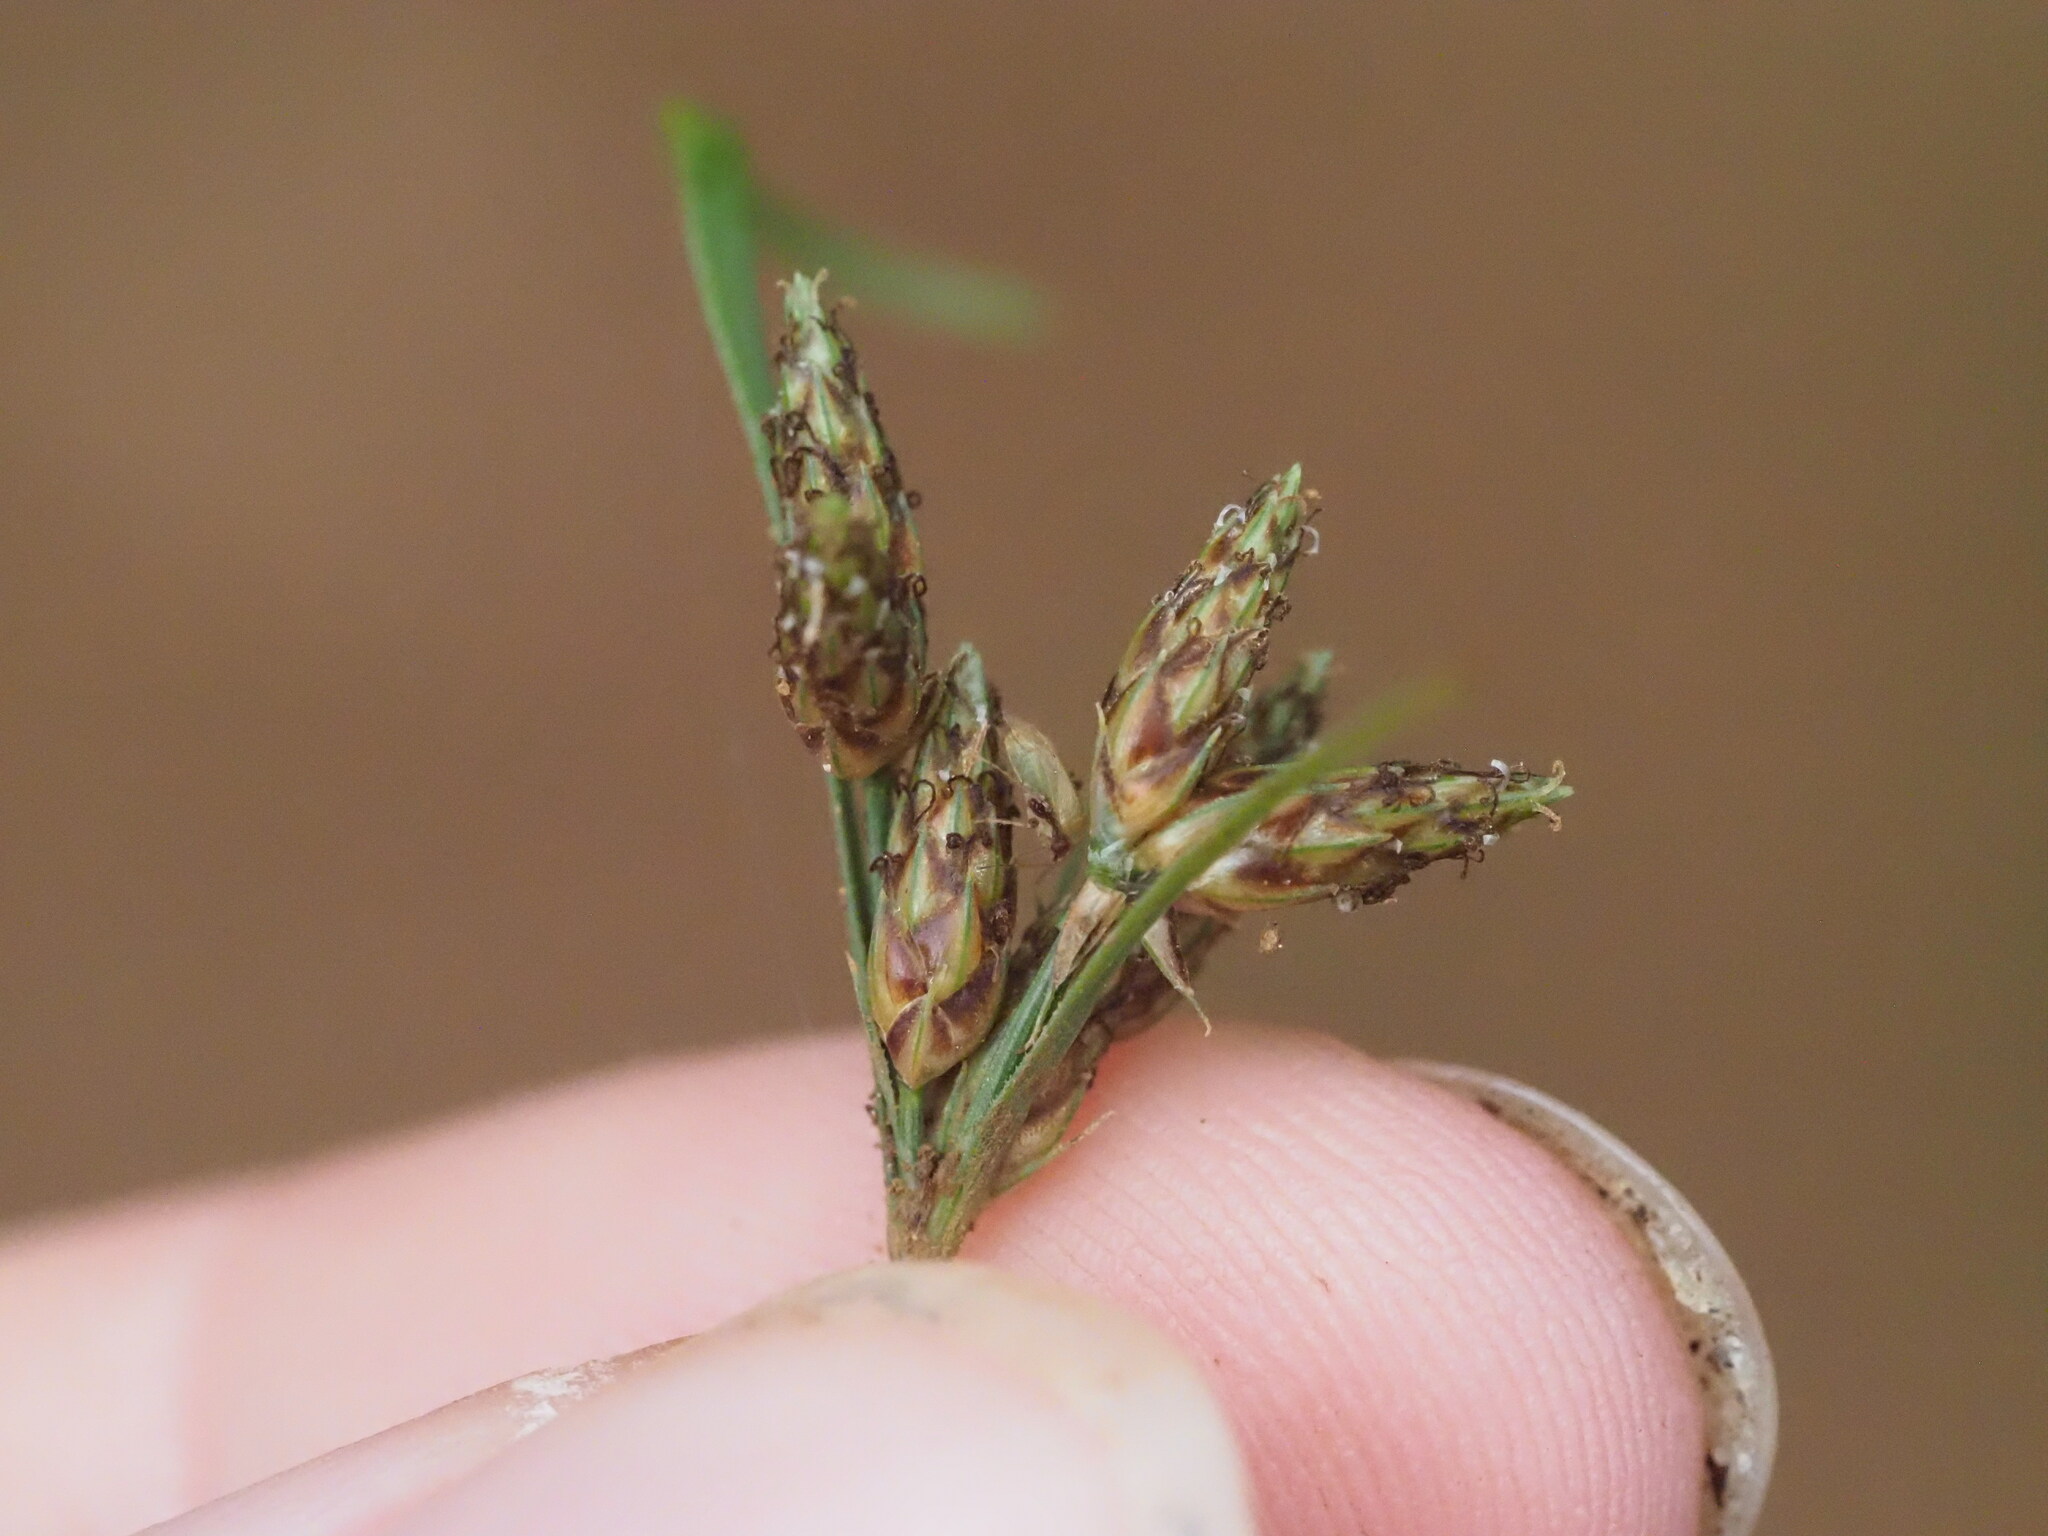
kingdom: Plantae
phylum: Tracheophyta
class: Liliopsida
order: Poales
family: Cyperaceae
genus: Fimbristylis
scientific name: Fimbristylis dichotoma
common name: Forked fimbry
